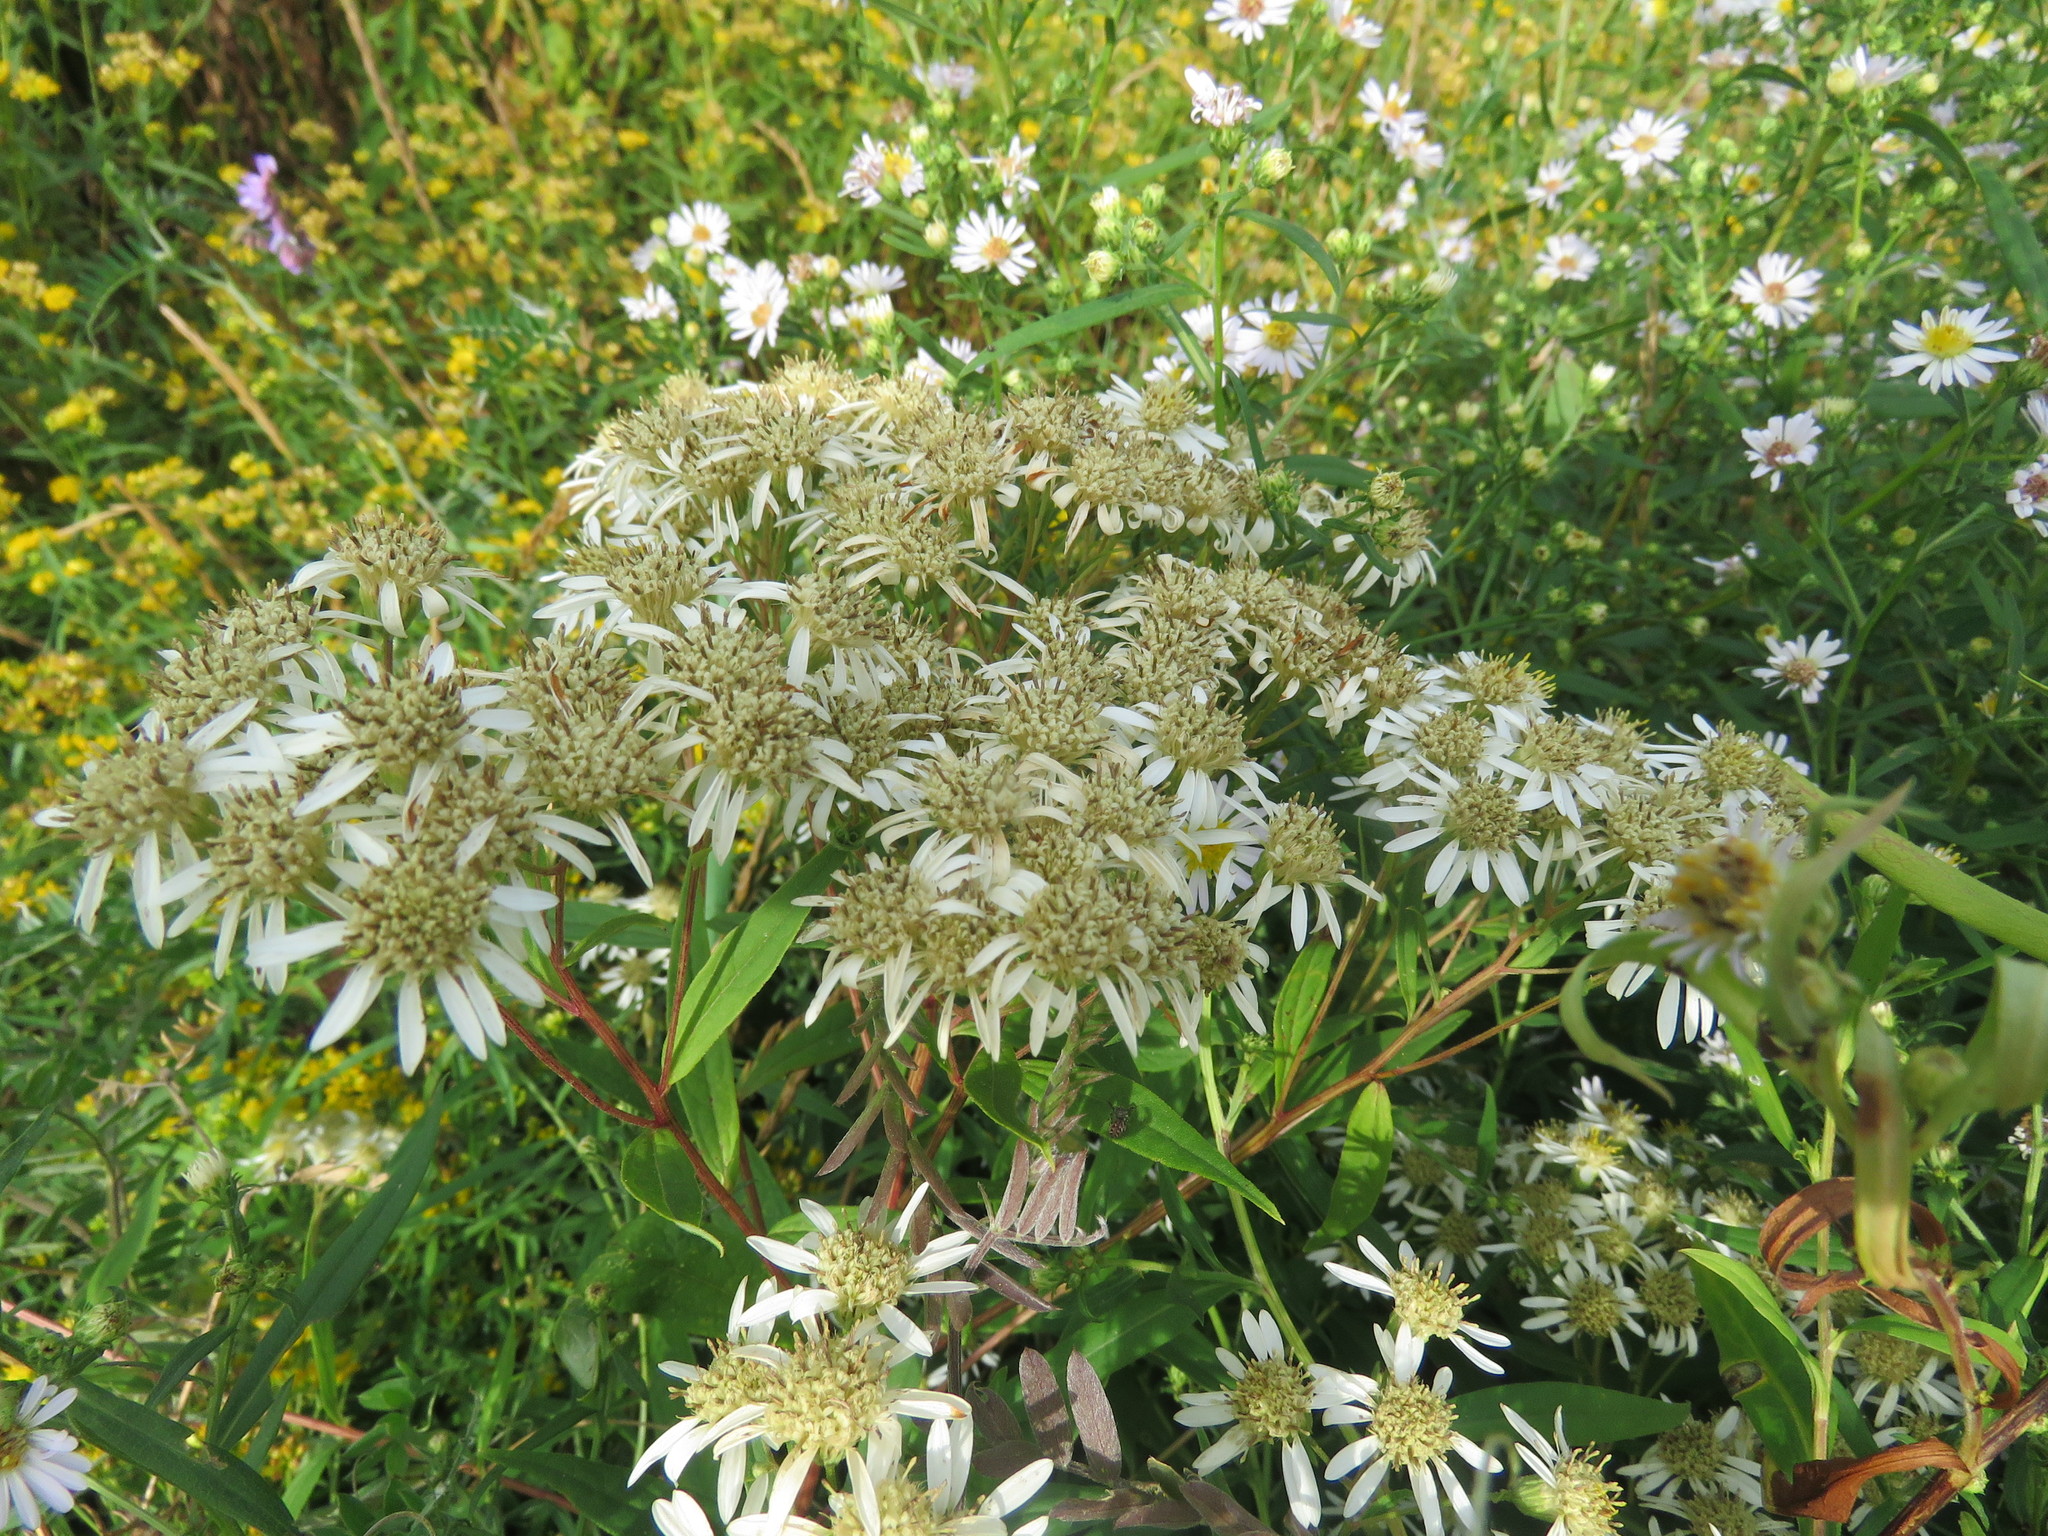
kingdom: Plantae
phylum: Tracheophyta
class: Magnoliopsida
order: Asterales
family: Asteraceae
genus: Doellingeria
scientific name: Doellingeria umbellata
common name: Flat-top white aster
